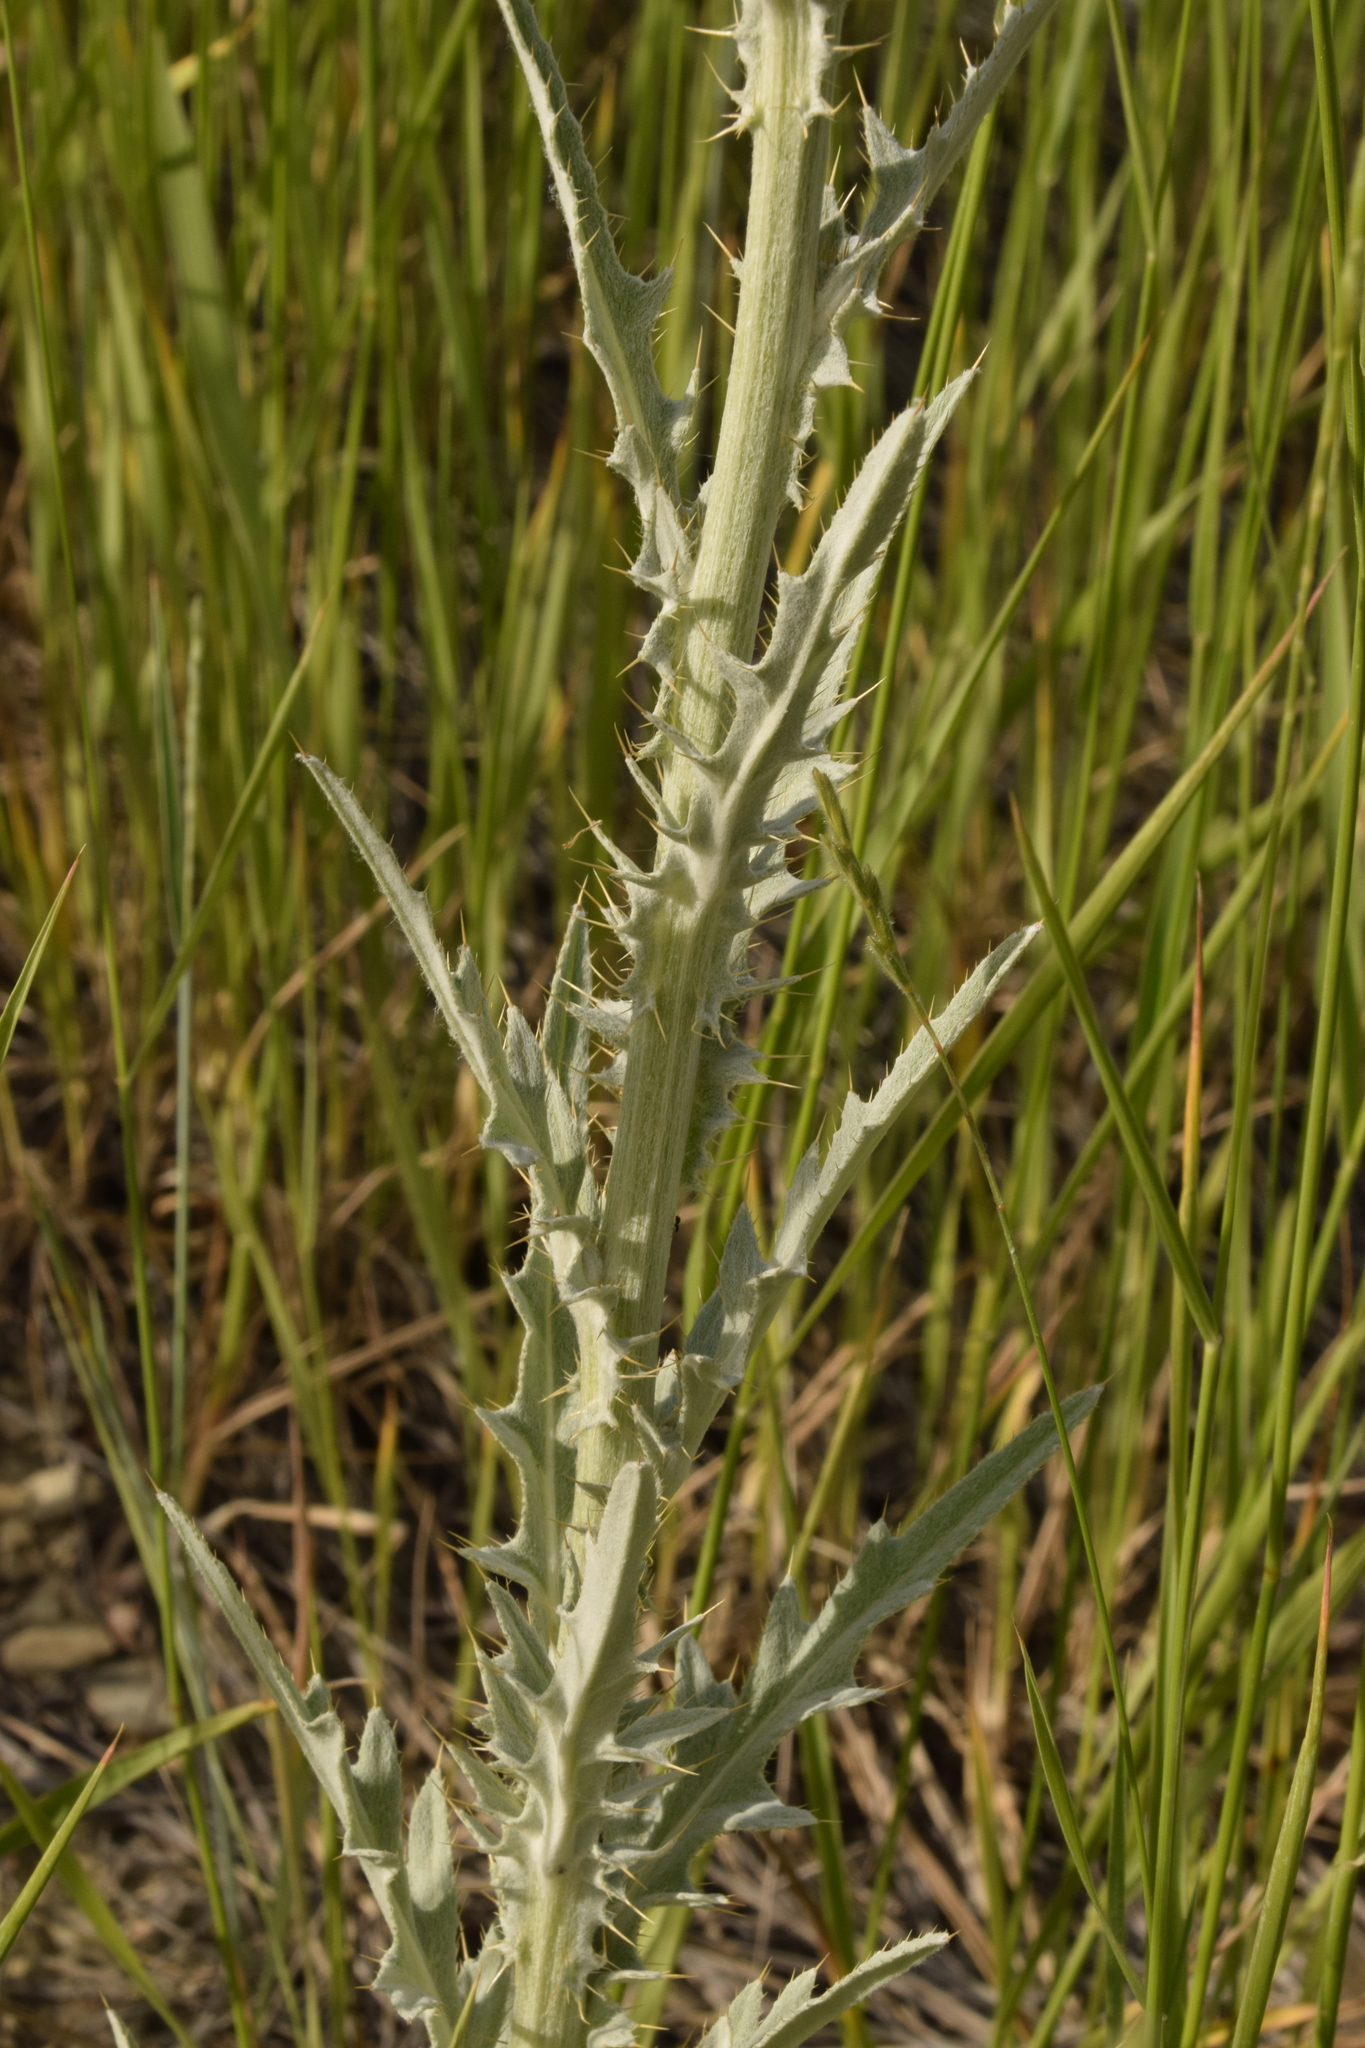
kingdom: Plantae
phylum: Tracheophyta
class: Magnoliopsida
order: Asterales
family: Asteraceae
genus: Cirsium
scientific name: Cirsium undulatum
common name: Pasture thistle
